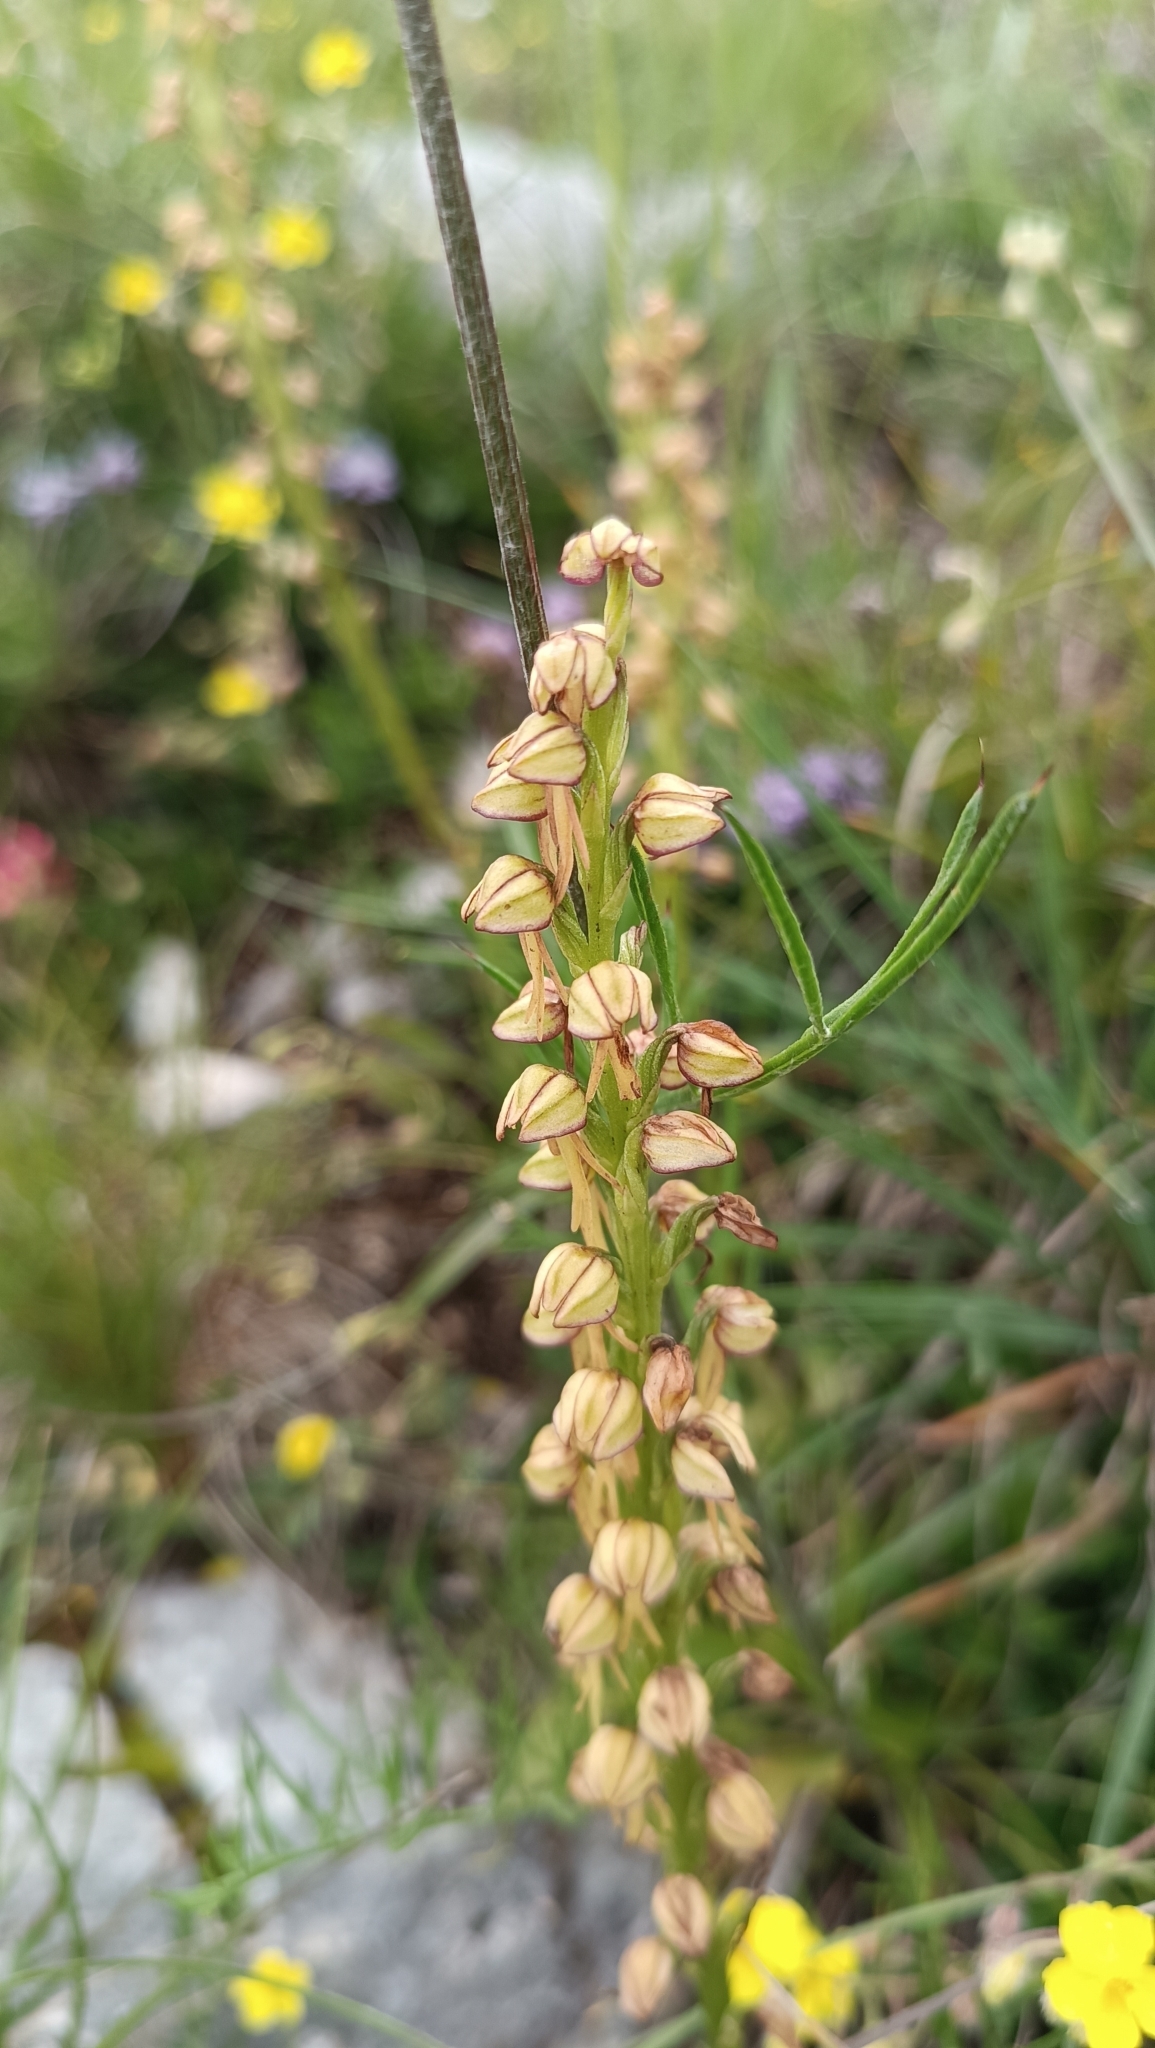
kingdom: Plantae
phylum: Tracheophyta
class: Liliopsida
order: Asparagales
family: Orchidaceae
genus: Orchis
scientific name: Orchis anthropophora
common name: Man orchid
